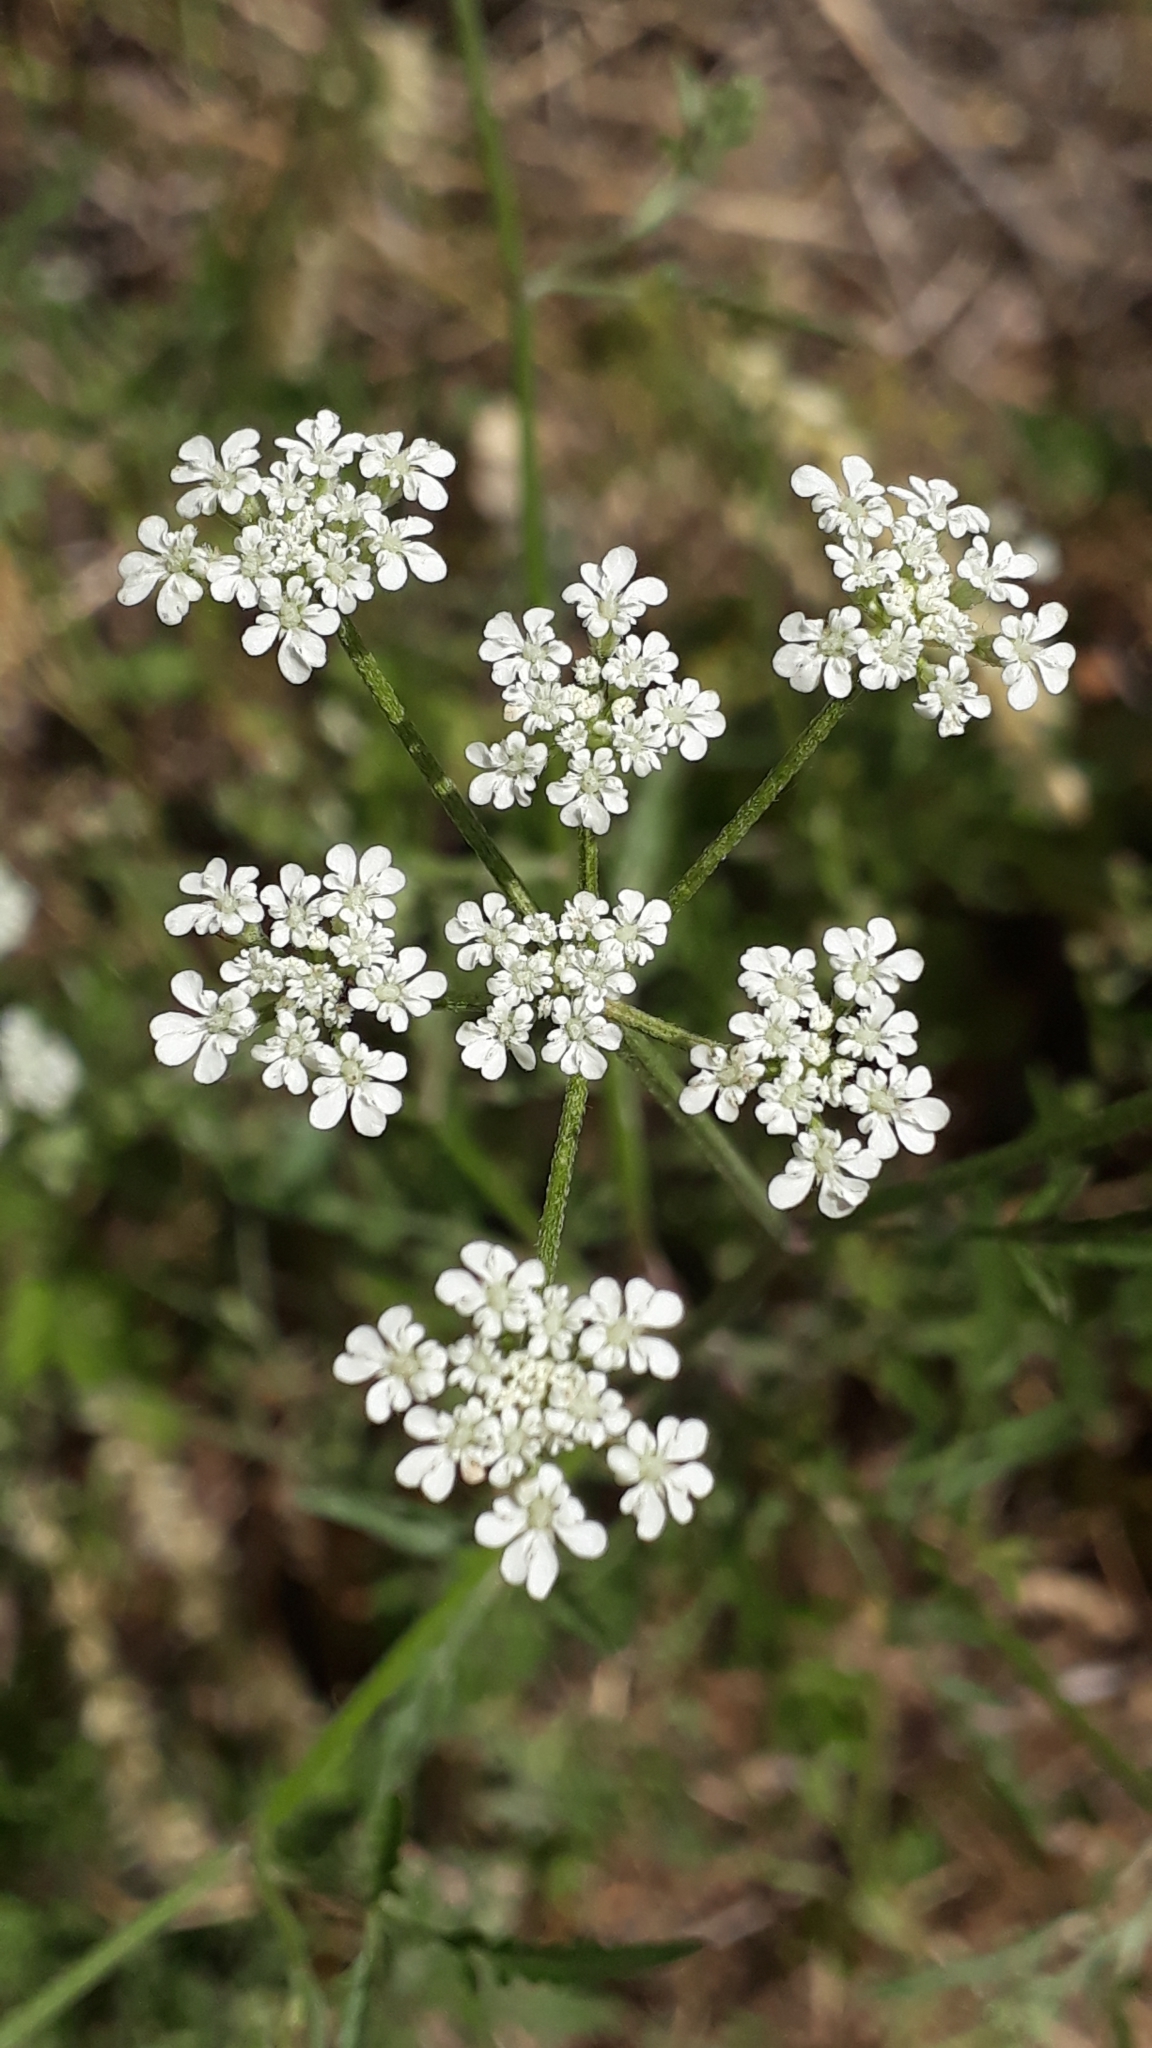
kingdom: Plantae
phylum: Tracheophyta
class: Magnoliopsida
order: Apiales
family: Apiaceae
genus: Torilis
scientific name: Torilis arvensis
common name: Spreading hedge-parsley
